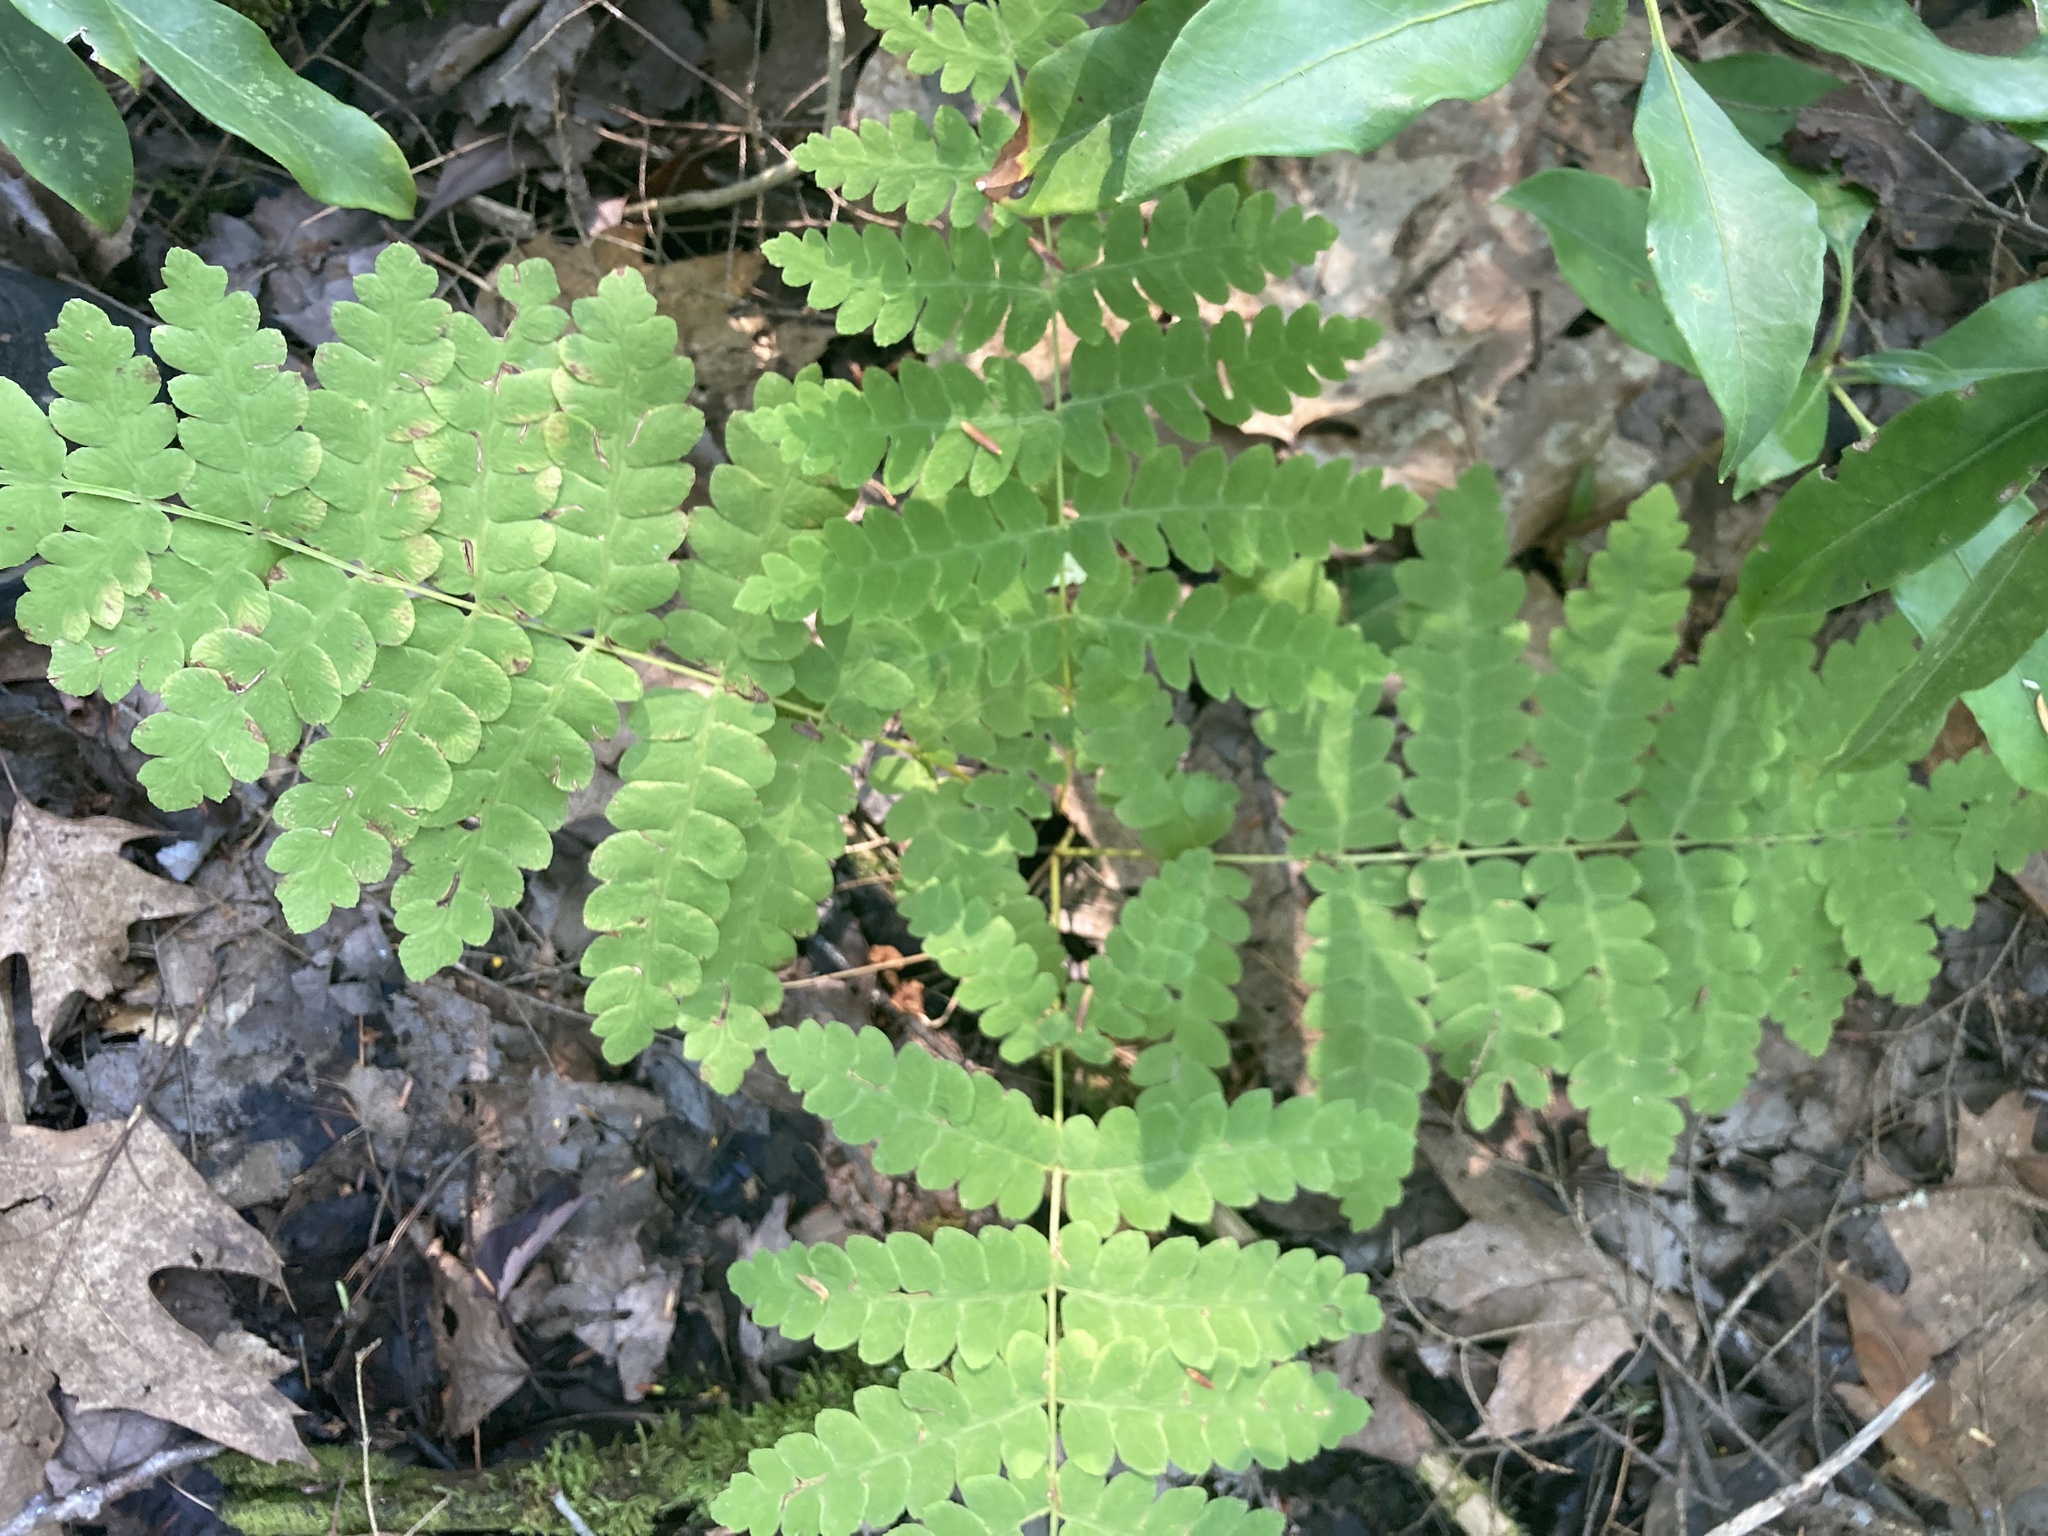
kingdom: Plantae
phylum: Tracheophyta
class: Polypodiopsida
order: Osmundales
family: Osmundaceae
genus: Claytosmunda
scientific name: Claytosmunda claytoniana
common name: Clayton's fern
